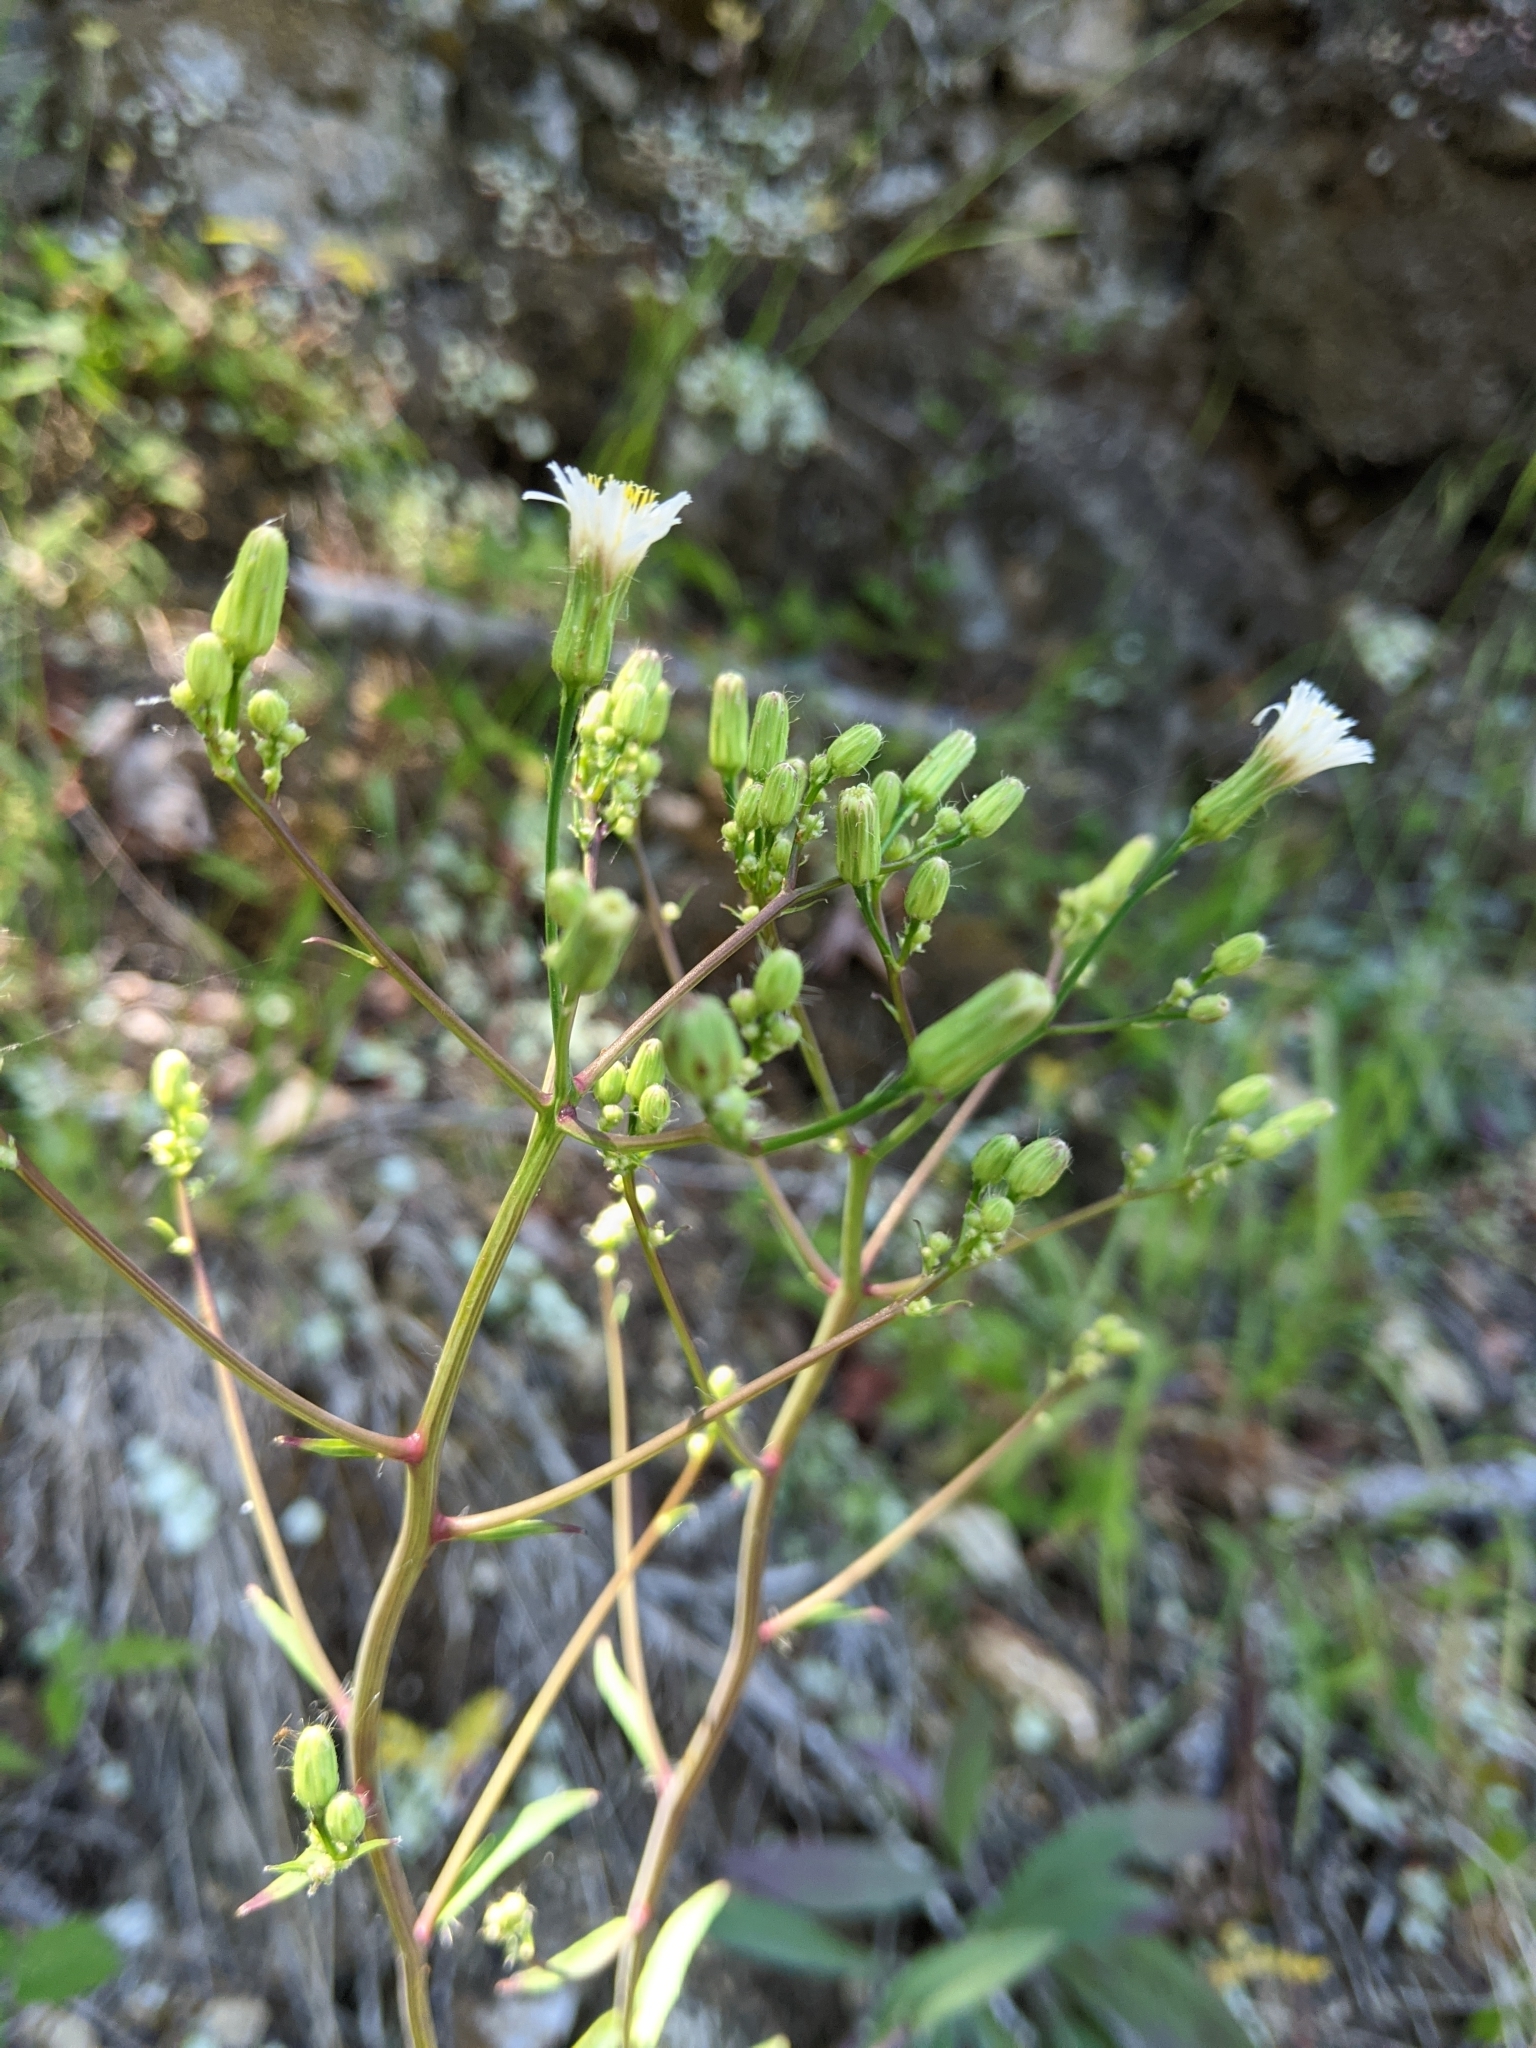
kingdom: Plantae
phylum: Tracheophyta
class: Magnoliopsida
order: Asterales
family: Asteraceae
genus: Hieracium
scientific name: Hieracium albiflorum
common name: White hawkweed
